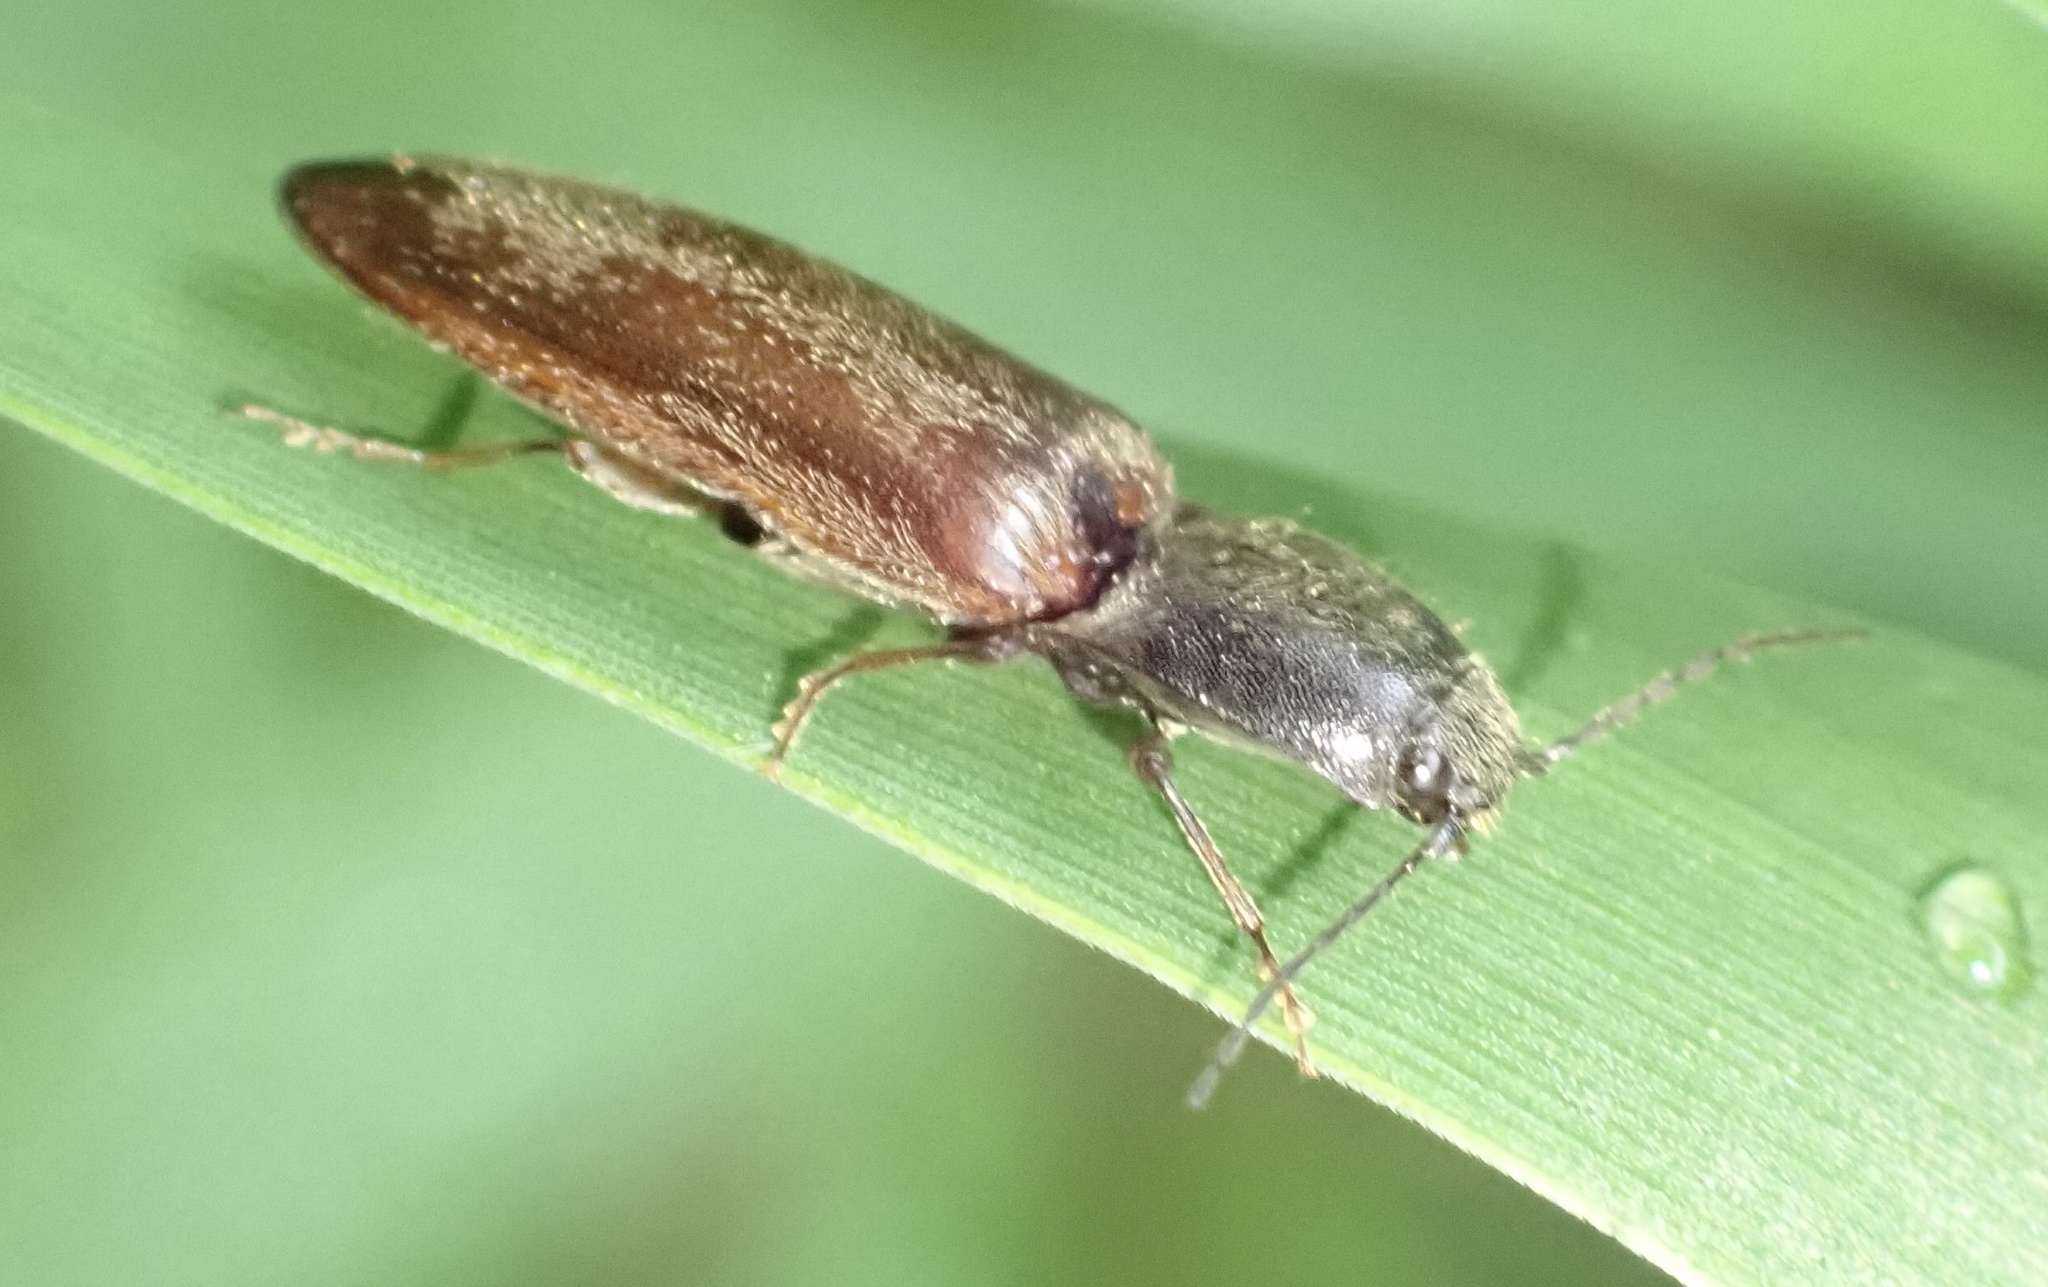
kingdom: Animalia
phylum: Arthropoda
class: Insecta
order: Coleoptera
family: Elateridae
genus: Athous
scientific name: Athous haemorrhoidalis
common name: Red-brown click beetle
